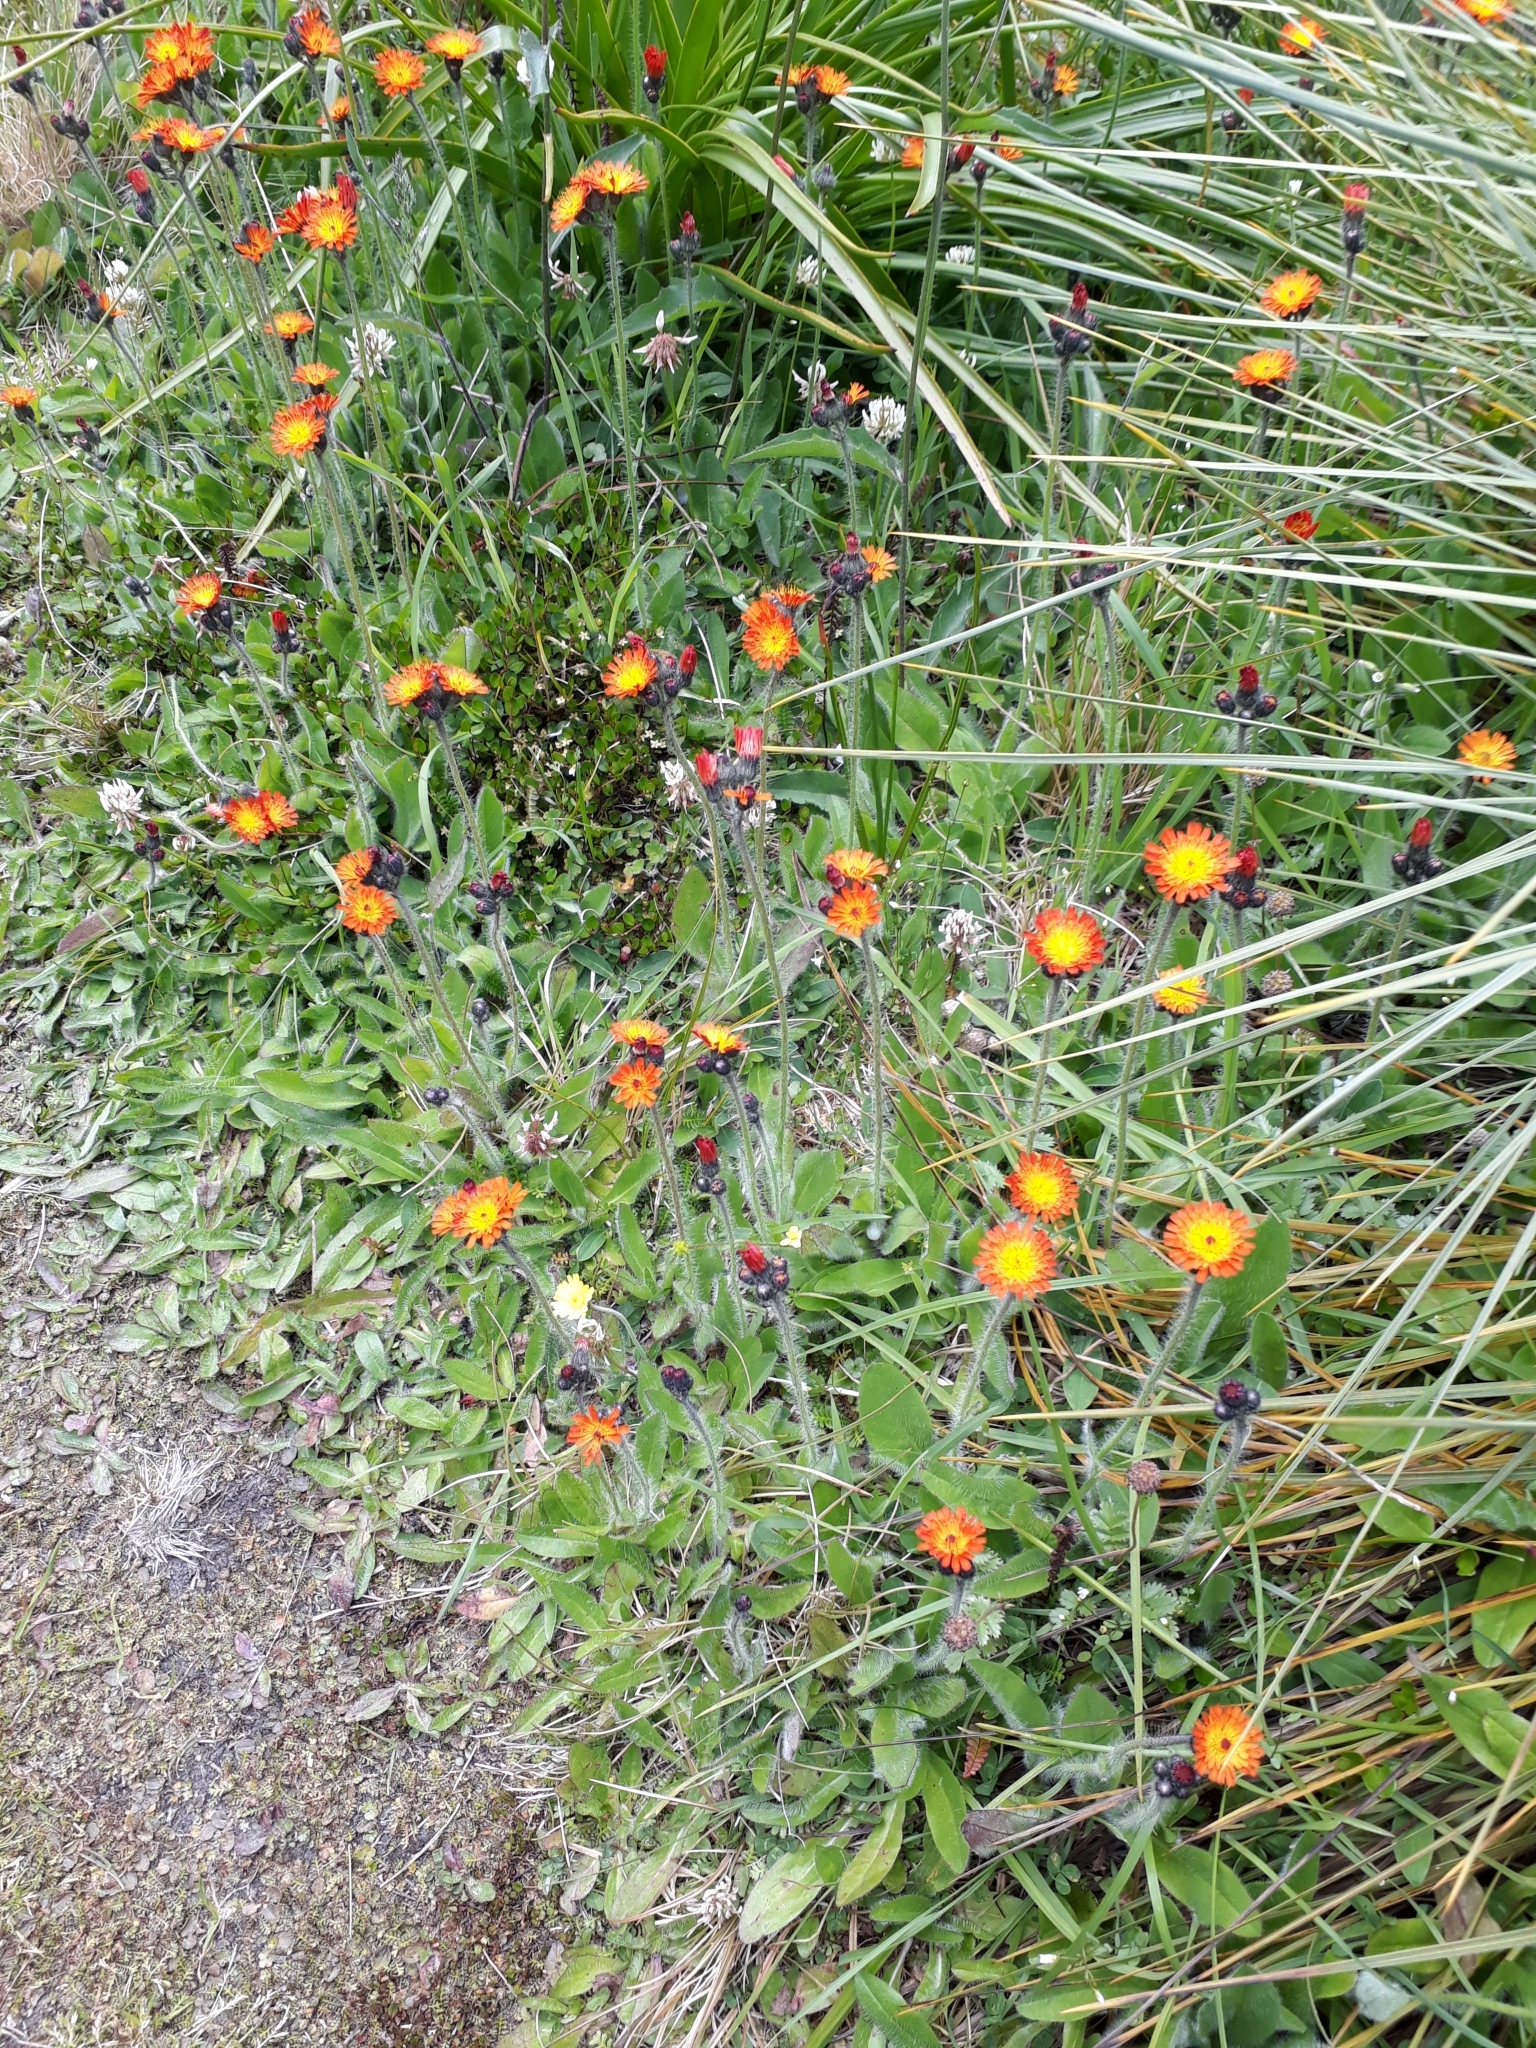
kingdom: Plantae
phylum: Tracheophyta
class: Magnoliopsida
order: Asterales
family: Asteraceae
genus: Pilosella
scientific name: Pilosella aurantiaca
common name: Fox-and-cubs
